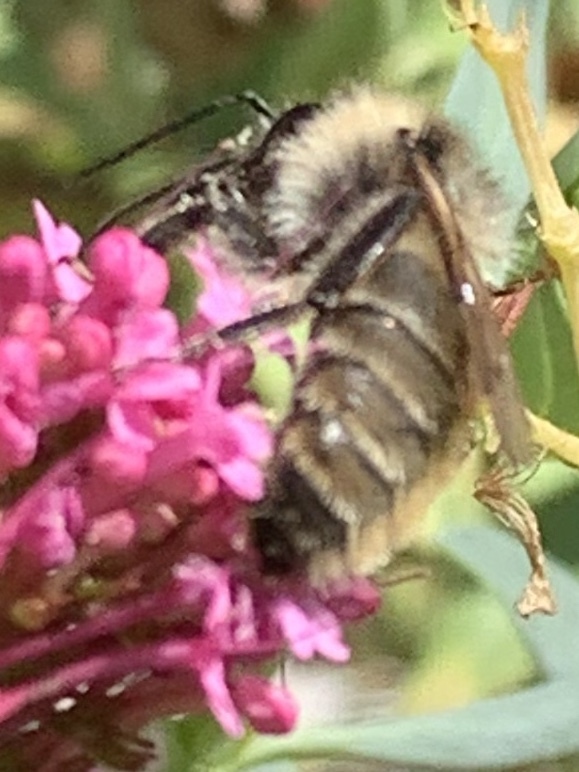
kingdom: Animalia
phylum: Arthropoda
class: Insecta
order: Hymenoptera
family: Apidae
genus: Bombus
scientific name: Bombus californicus
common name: California bumble bee
